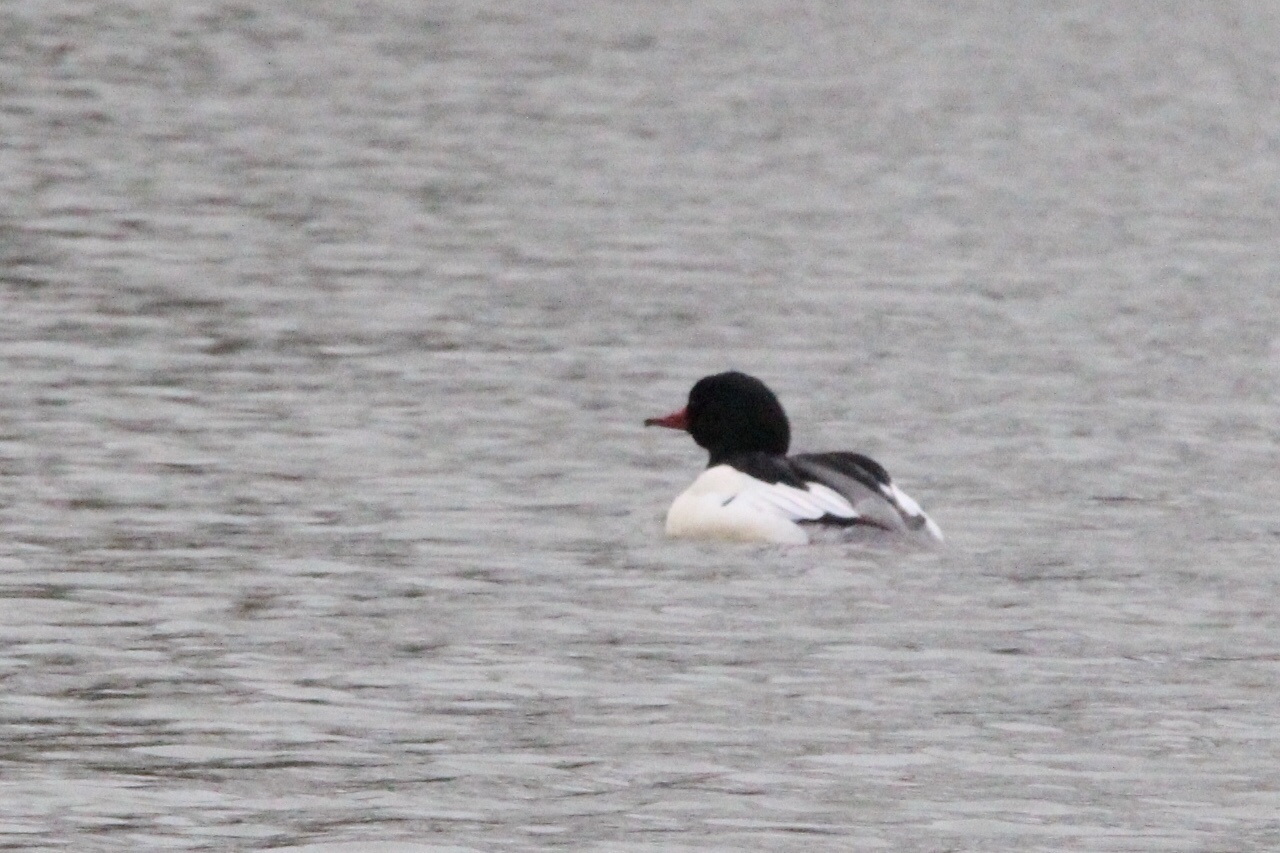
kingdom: Animalia
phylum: Chordata
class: Aves
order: Anseriformes
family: Anatidae
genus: Mergus
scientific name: Mergus merganser
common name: Common merganser
